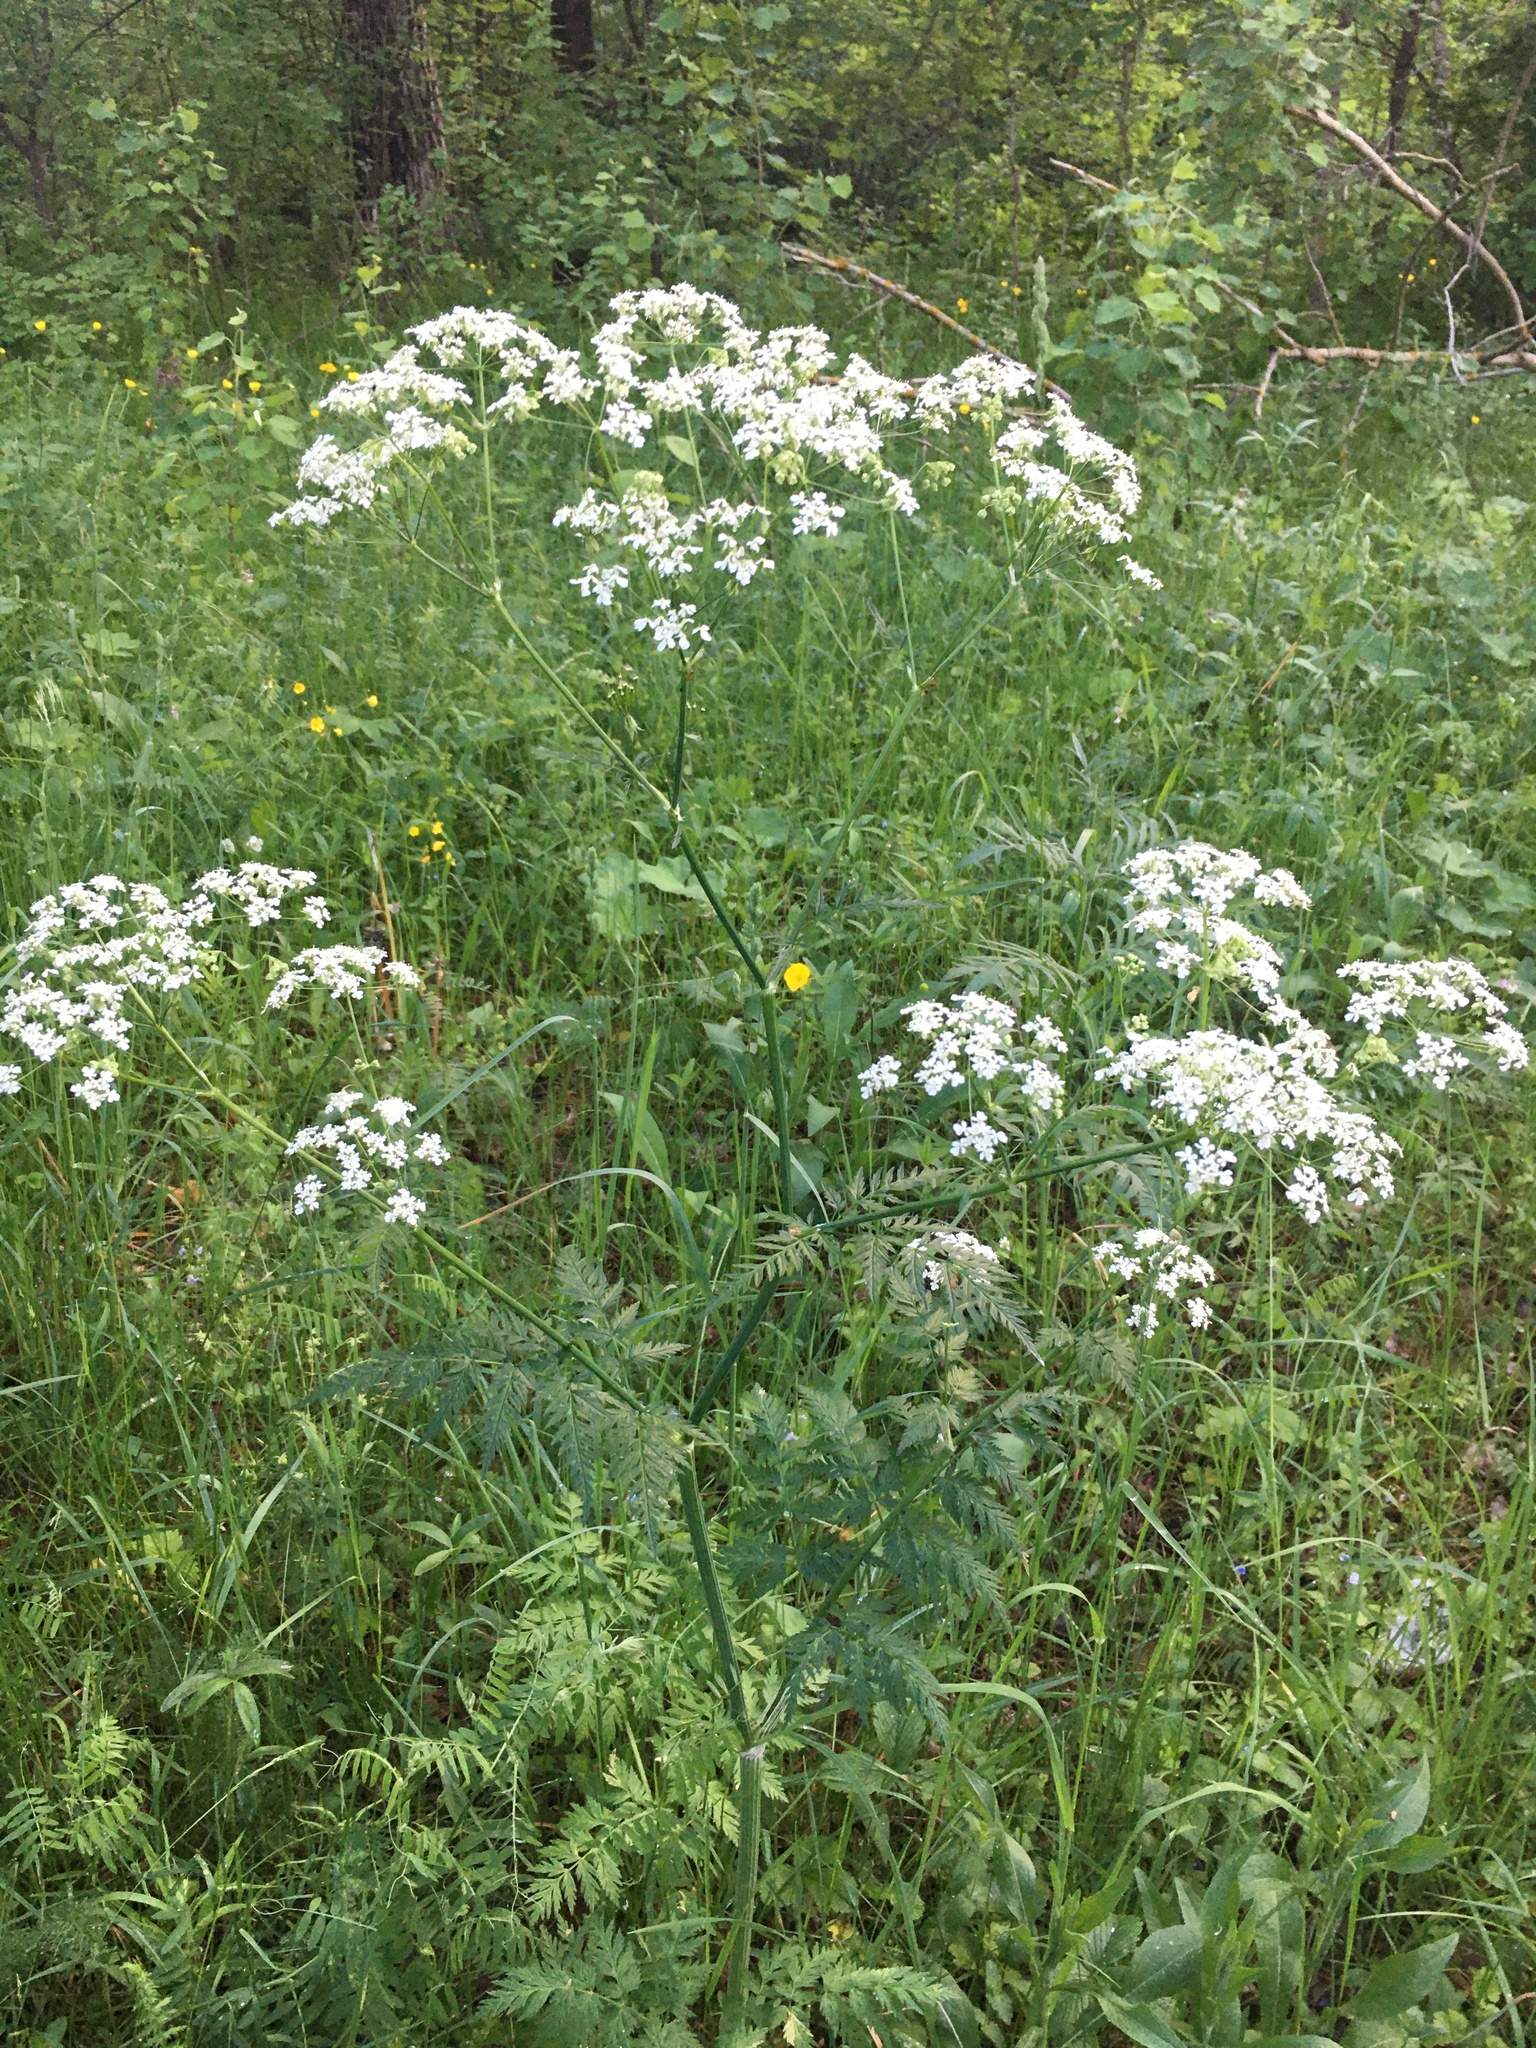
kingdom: Plantae
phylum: Tracheophyta
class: Magnoliopsida
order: Apiales
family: Apiaceae
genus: Anthriscus
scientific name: Anthriscus sylvestris
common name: Cow parsley
